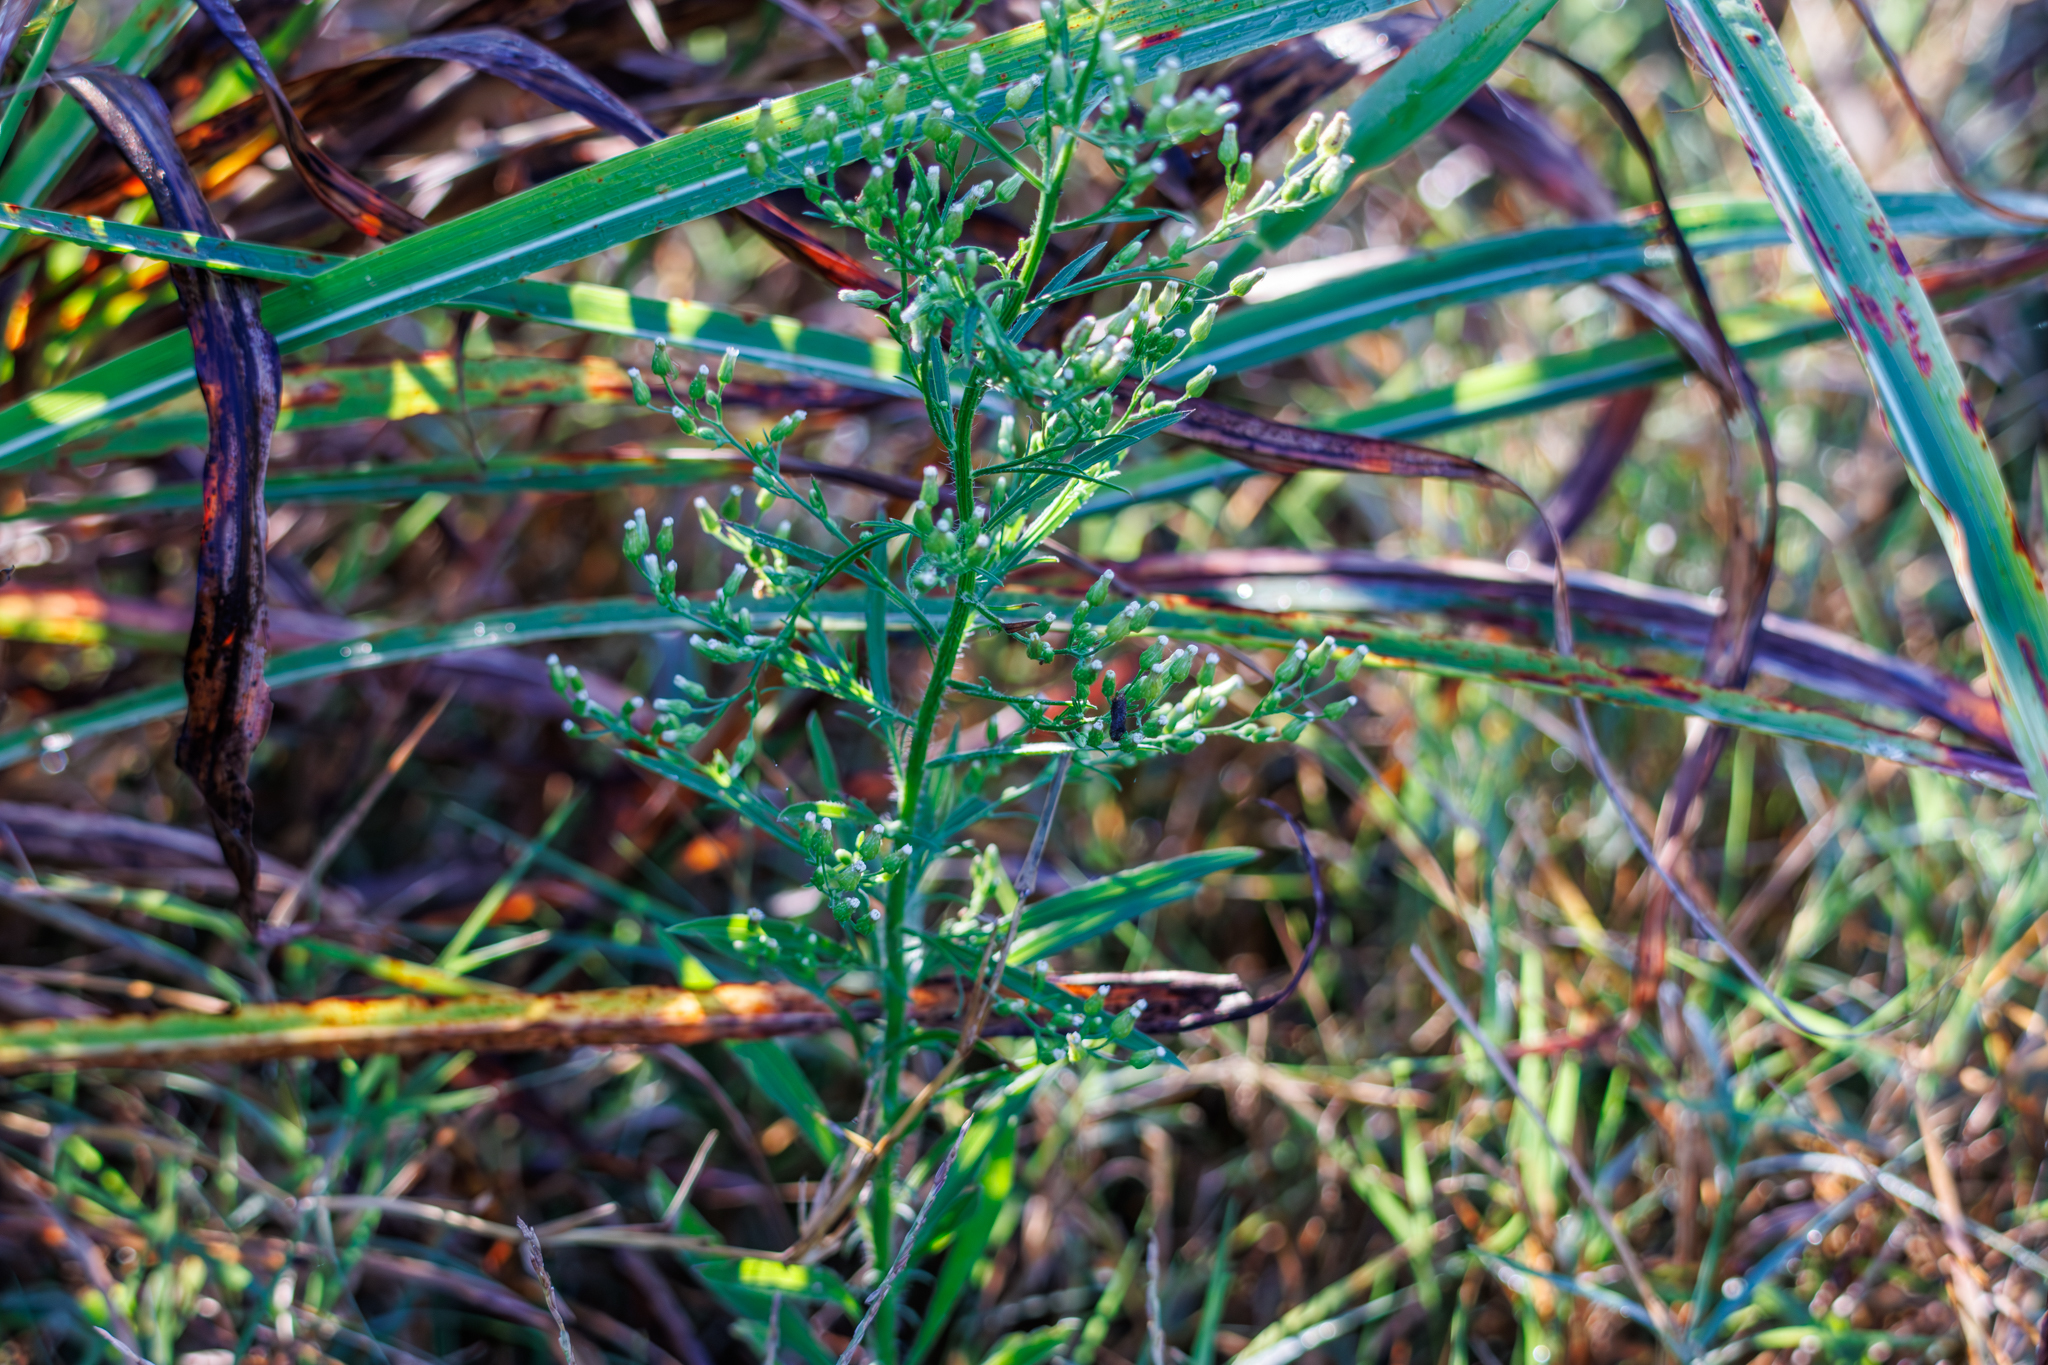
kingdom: Plantae
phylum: Tracheophyta
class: Magnoliopsida
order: Asterales
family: Asteraceae
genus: Erigeron
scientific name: Erigeron canadensis
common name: Canadian fleabane
